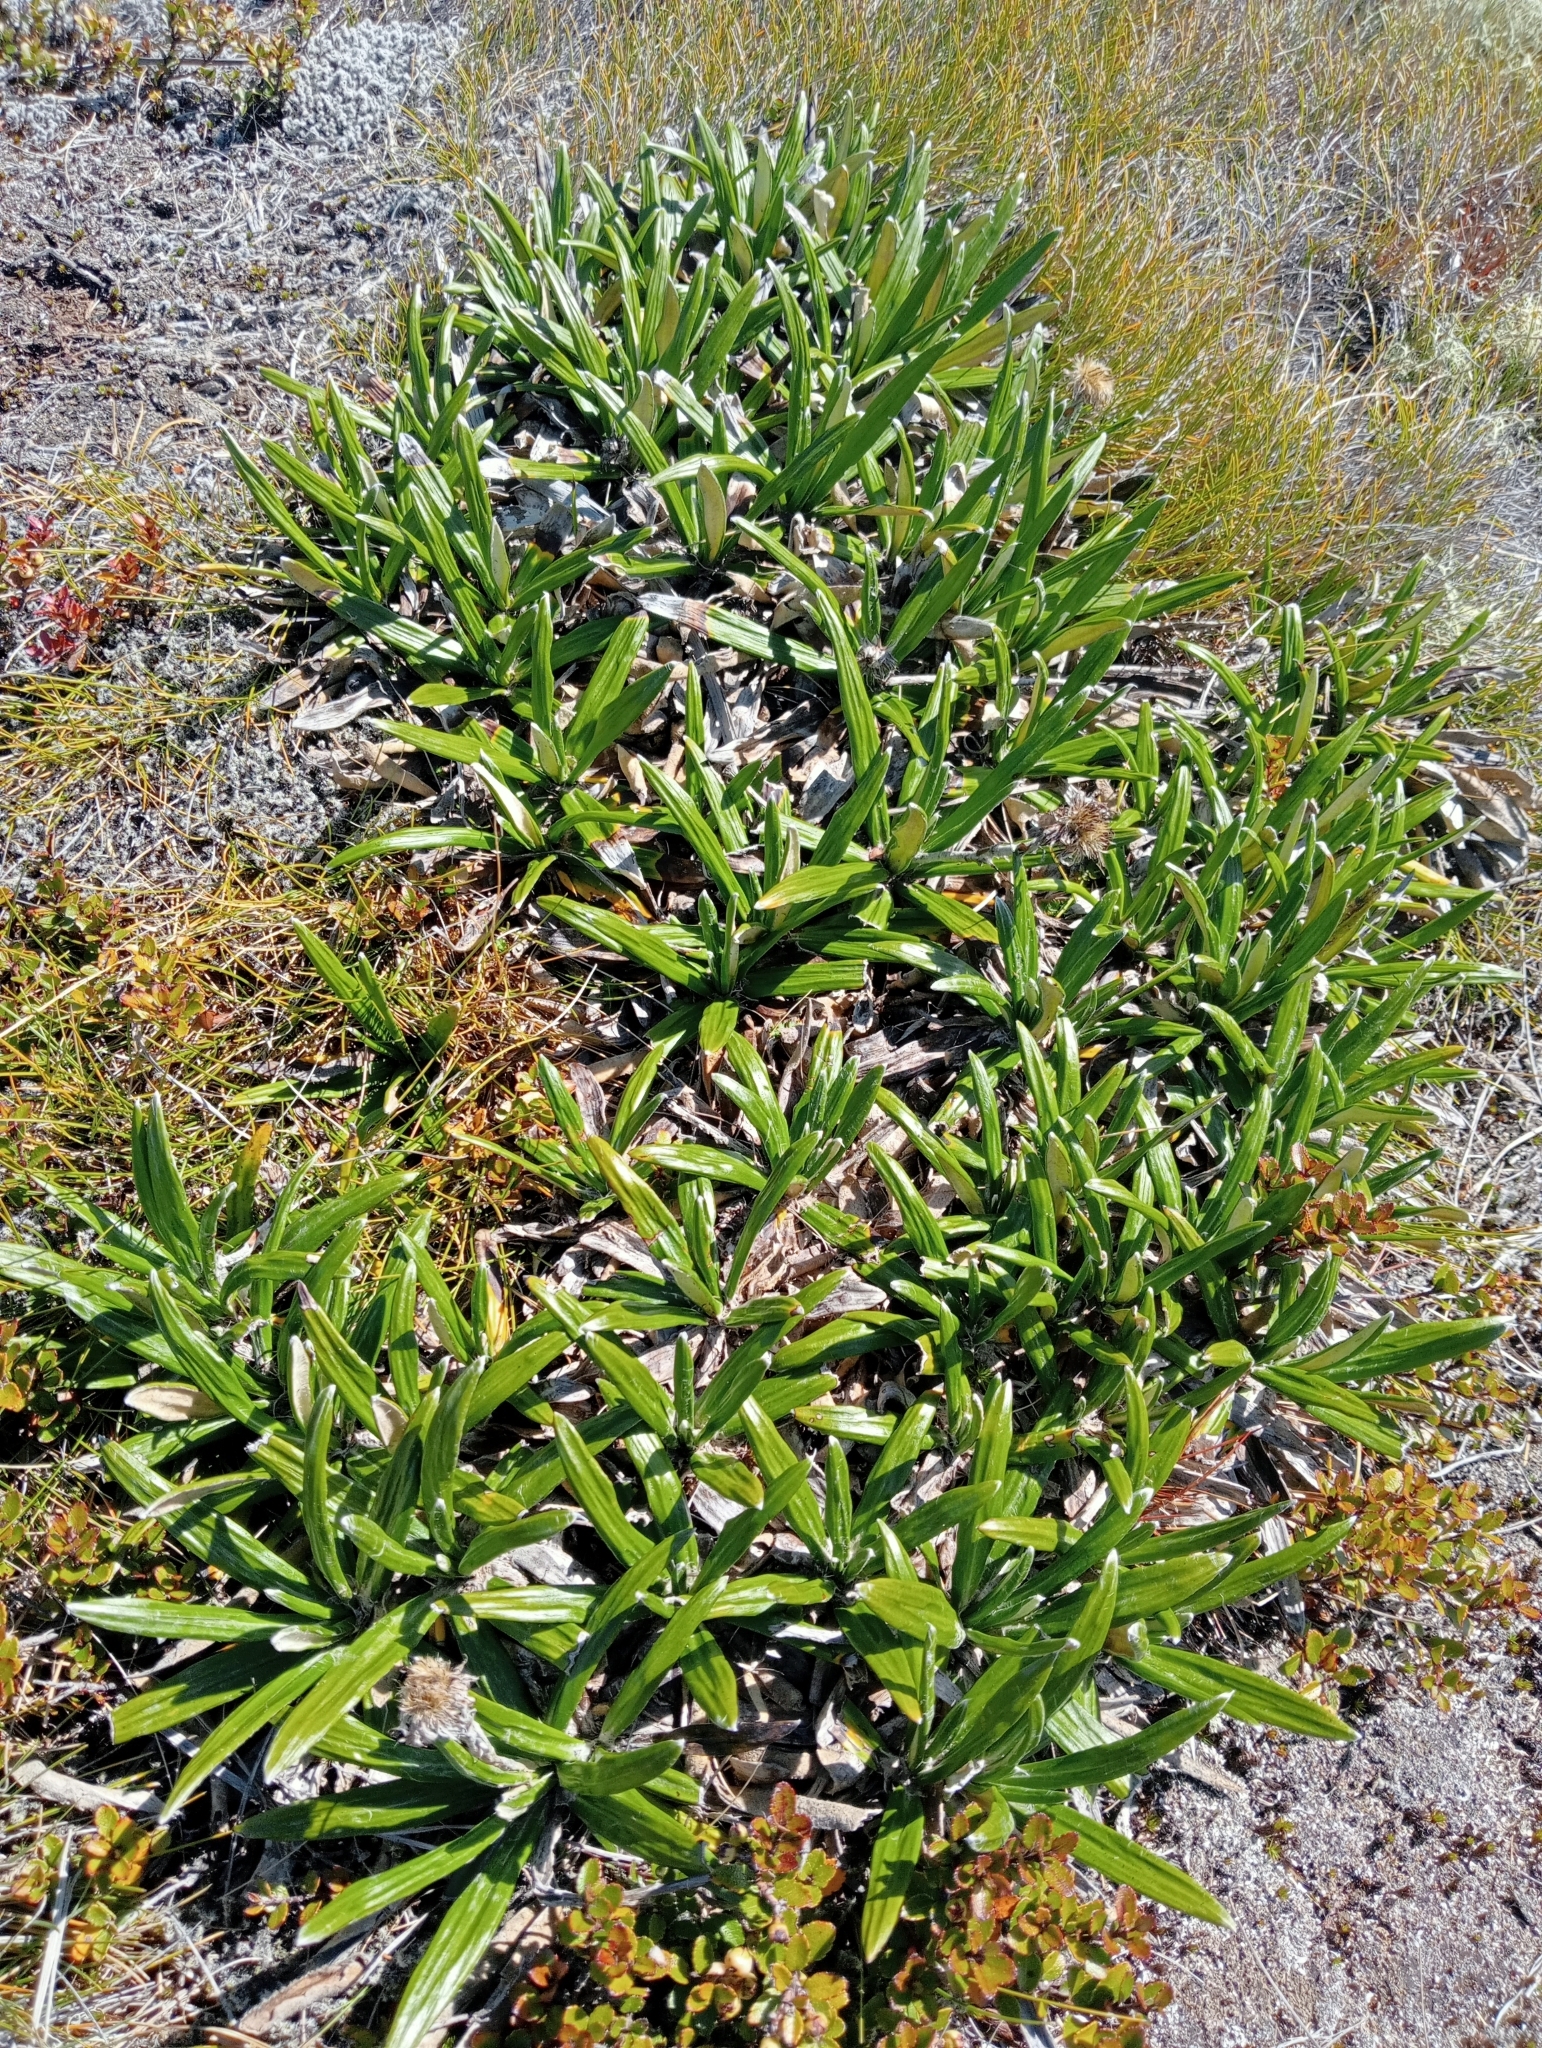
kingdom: Plantae
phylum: Tracheophyta
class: Magnoliopsida
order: Asterales
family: Asteraceae
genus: Celmisia
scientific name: Celmisia spectabilis
